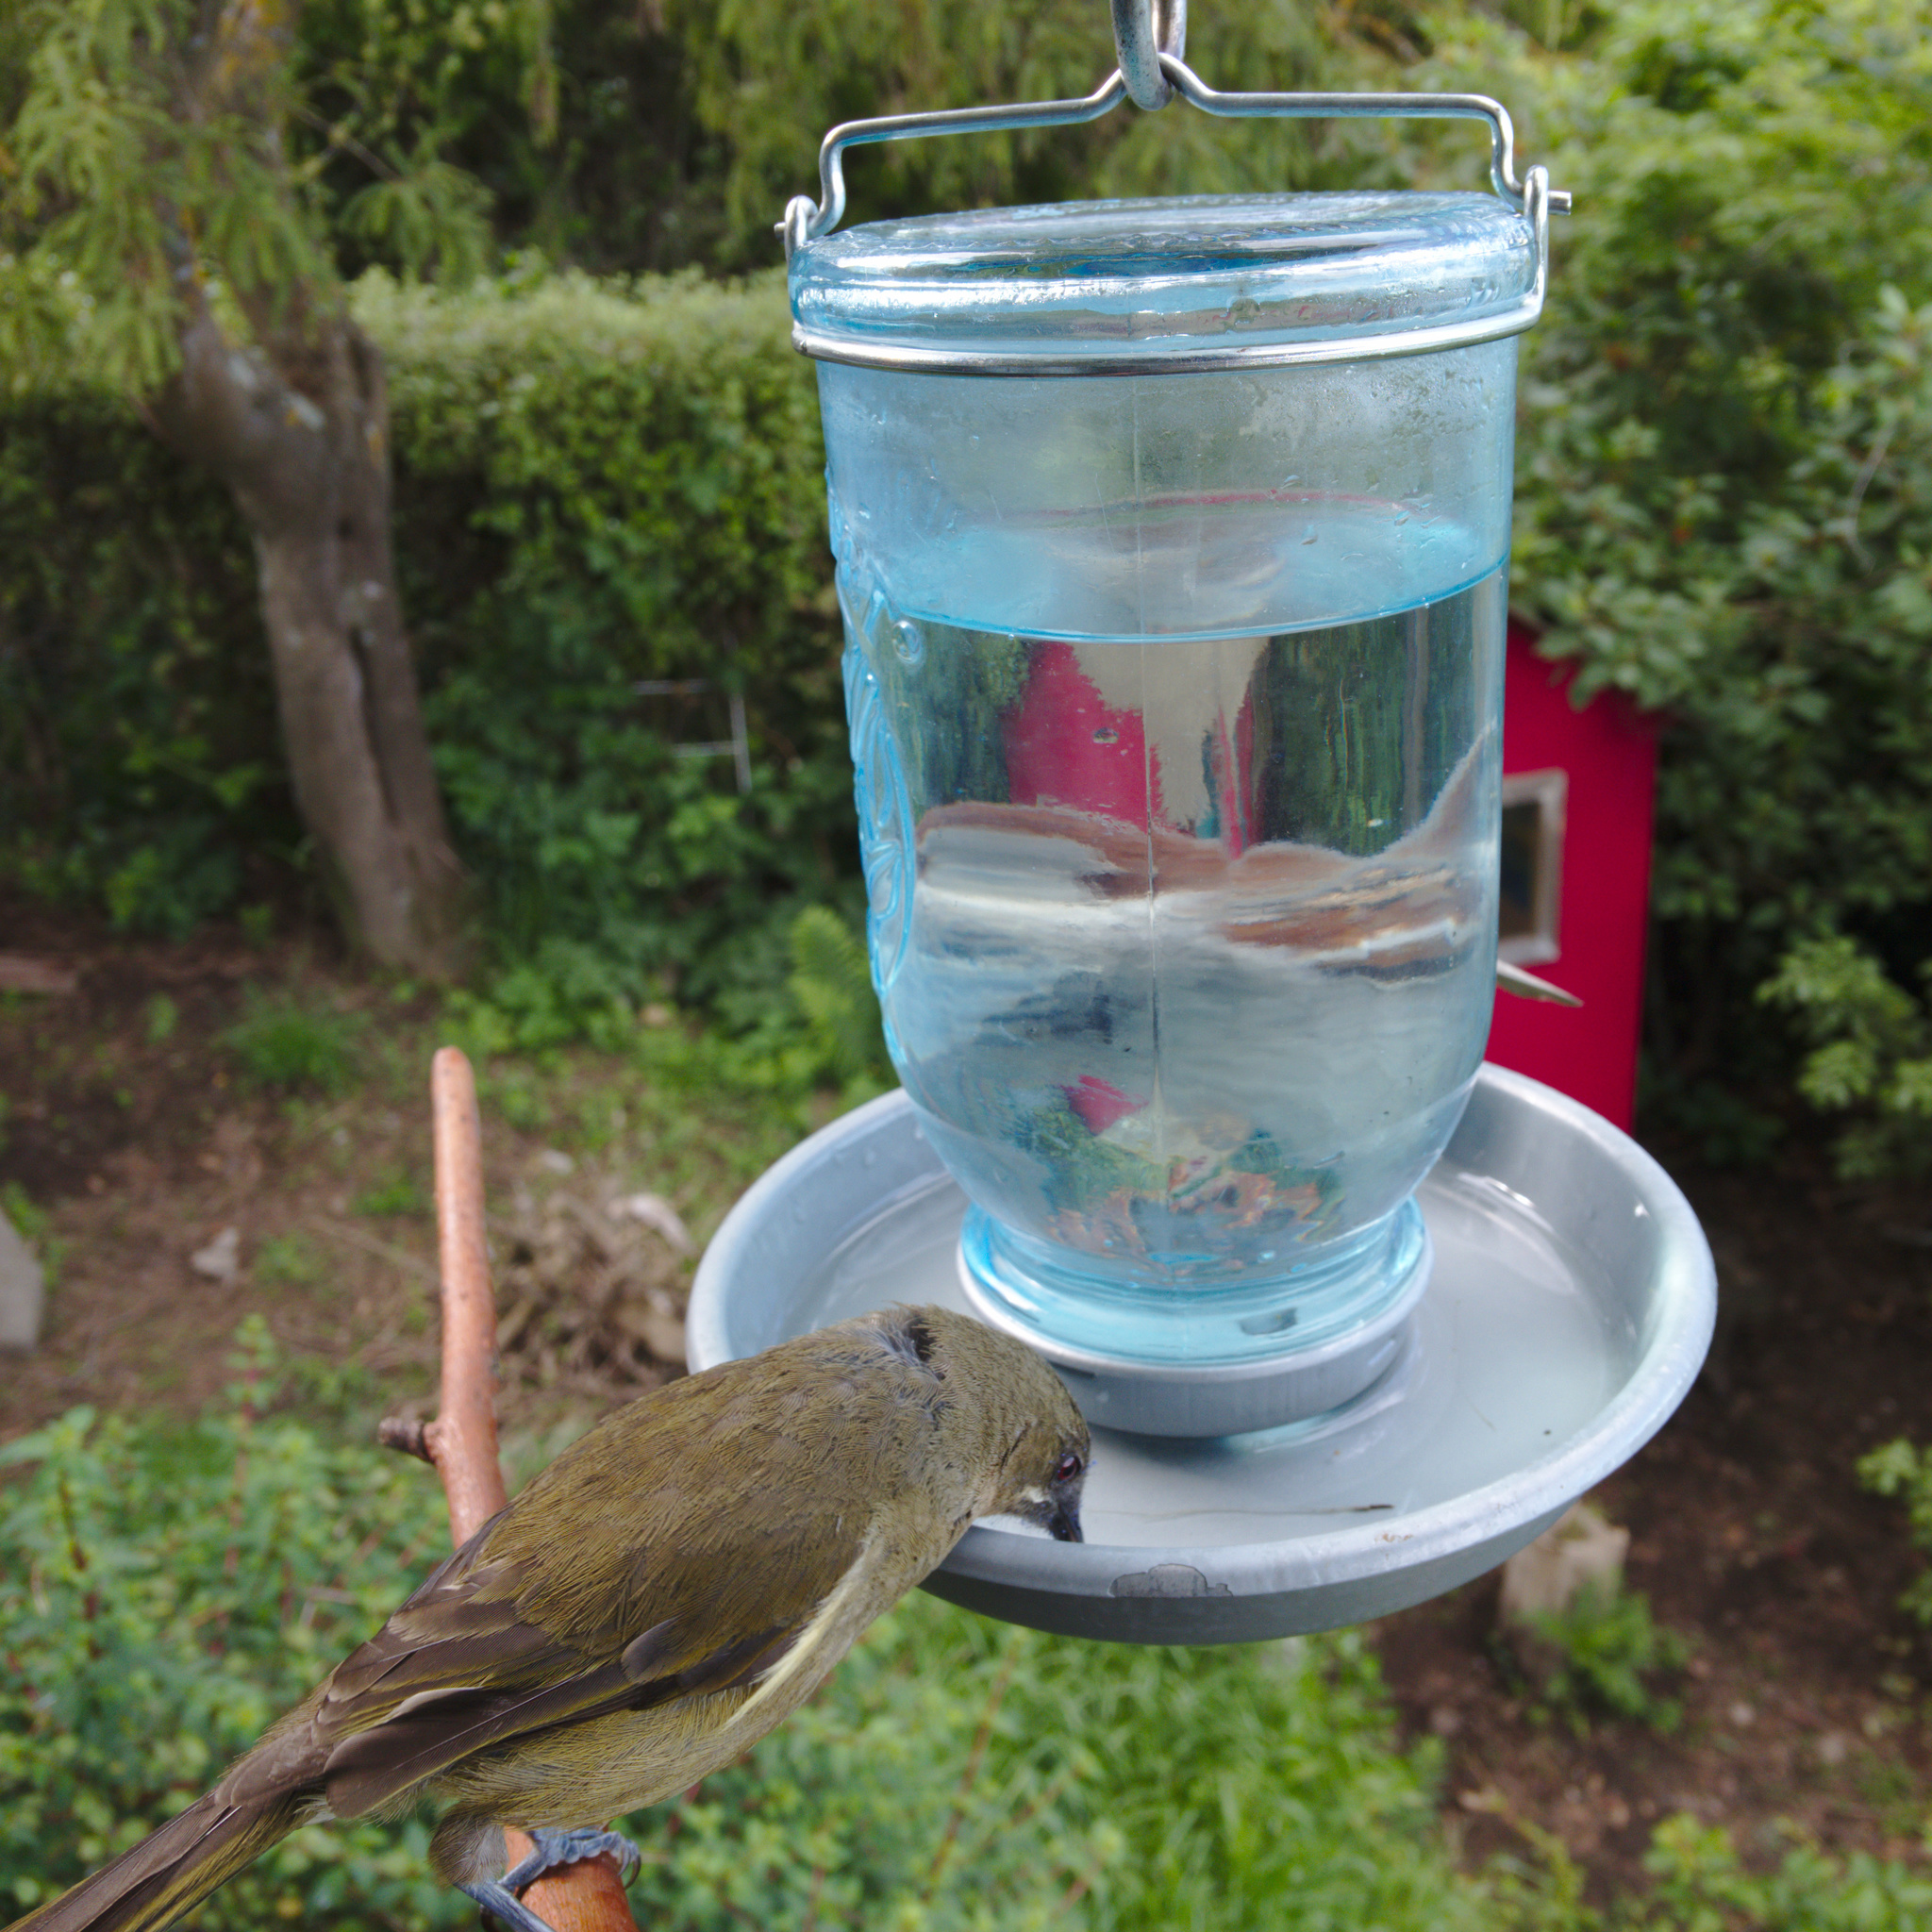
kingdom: Animalia
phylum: Chordata
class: Aves
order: Passeriformes
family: Meliphagidae
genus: Anthornis
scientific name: Anthornis melanura
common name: New zealand bellbird
